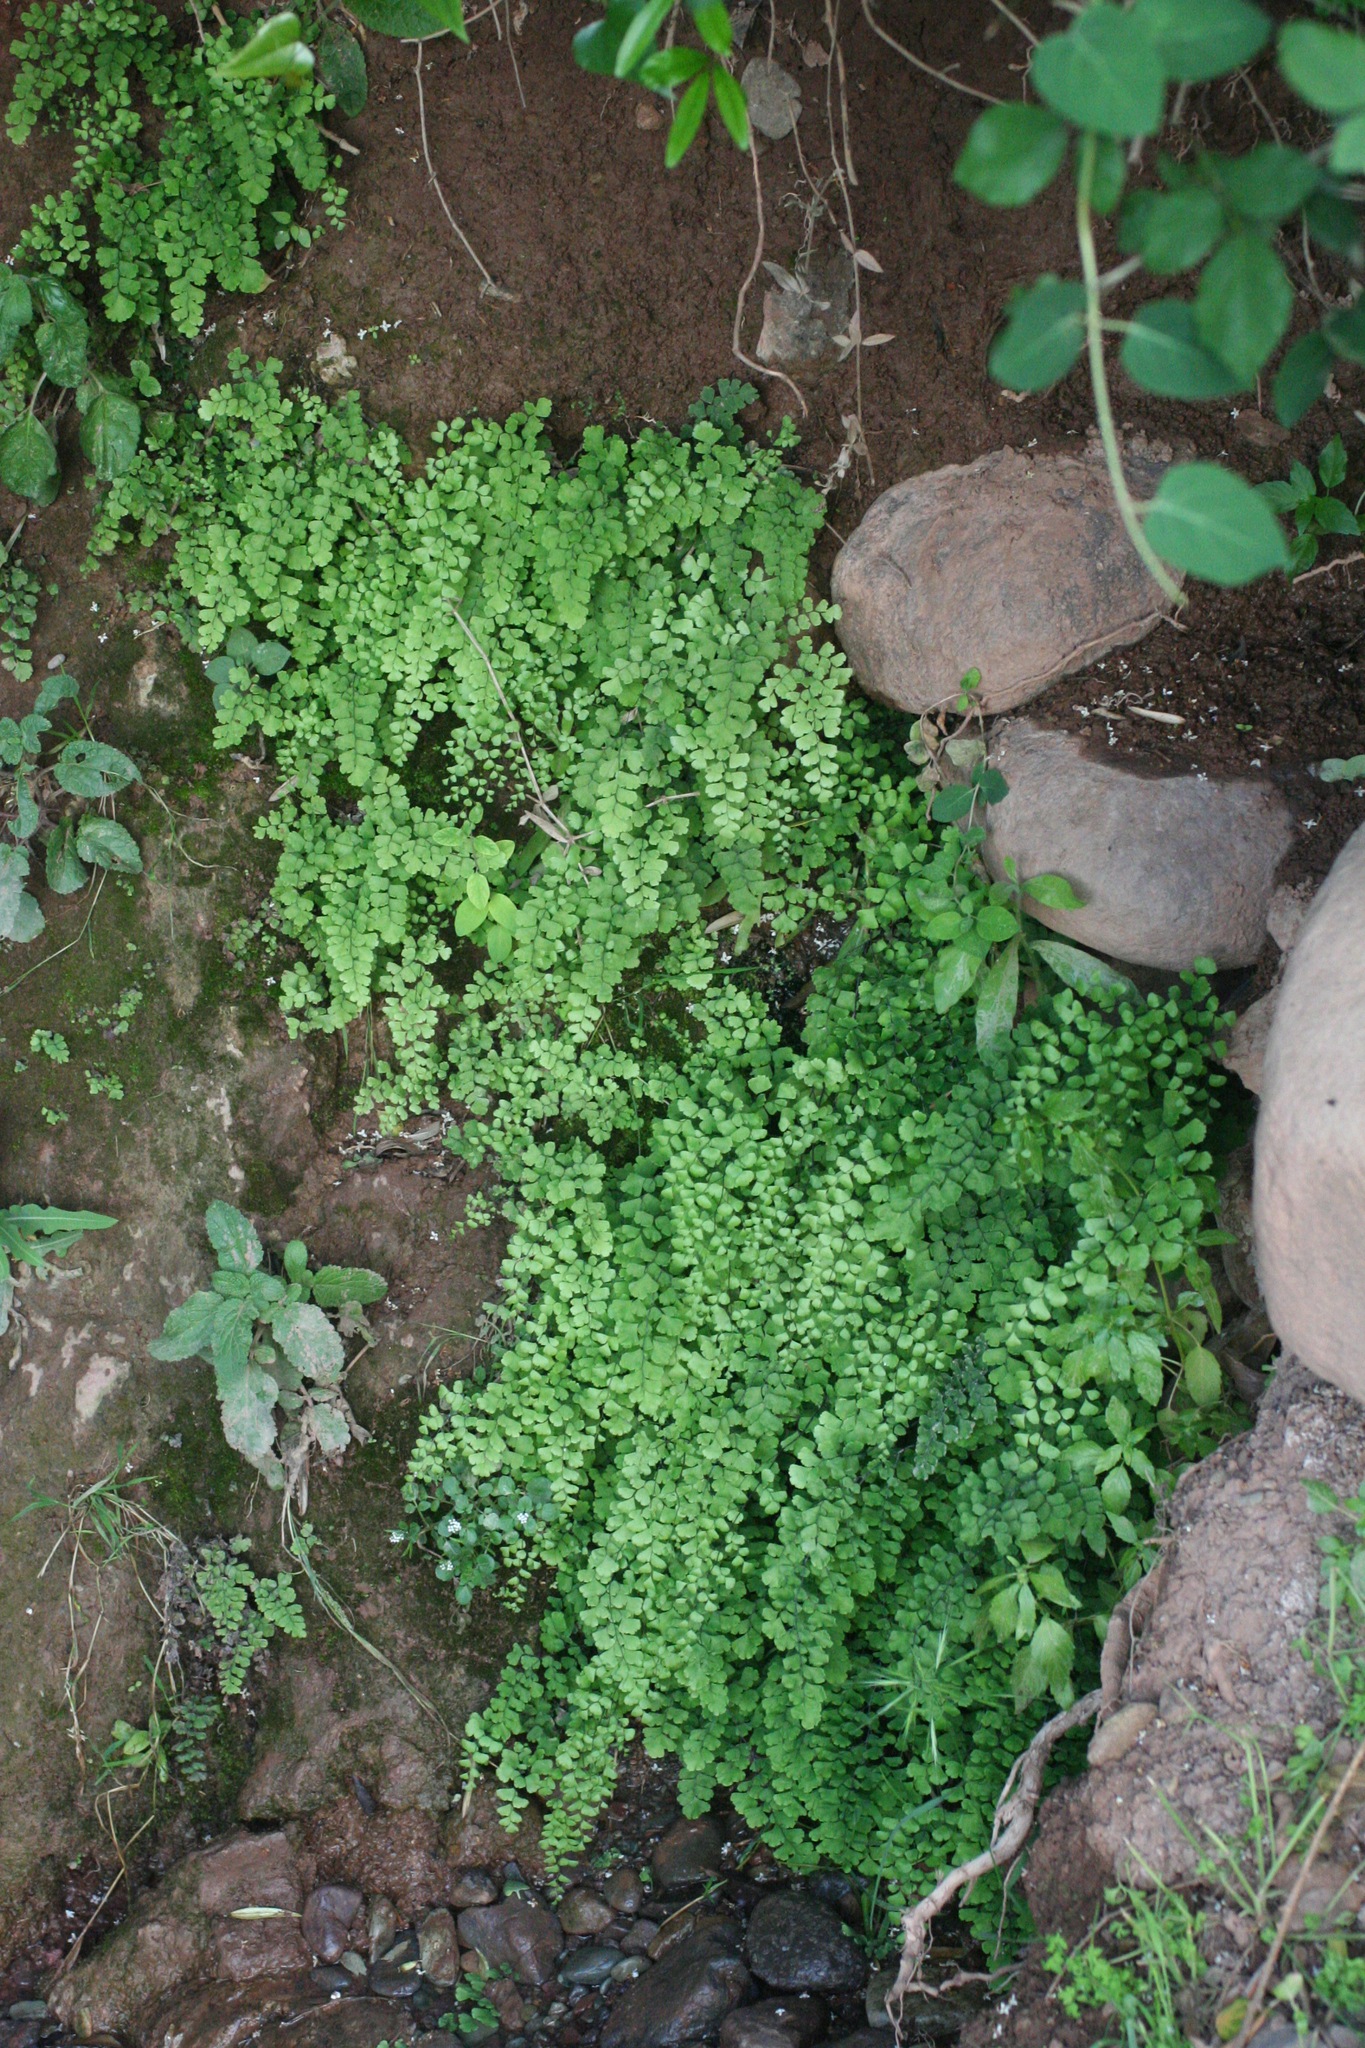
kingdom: Plantae
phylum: Tracheophyta
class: Polypodiopsida
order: Polypodiales
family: Pteridaceae
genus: Adiantum
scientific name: Adiantum capillus-veneris
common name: Maidenhair fern
